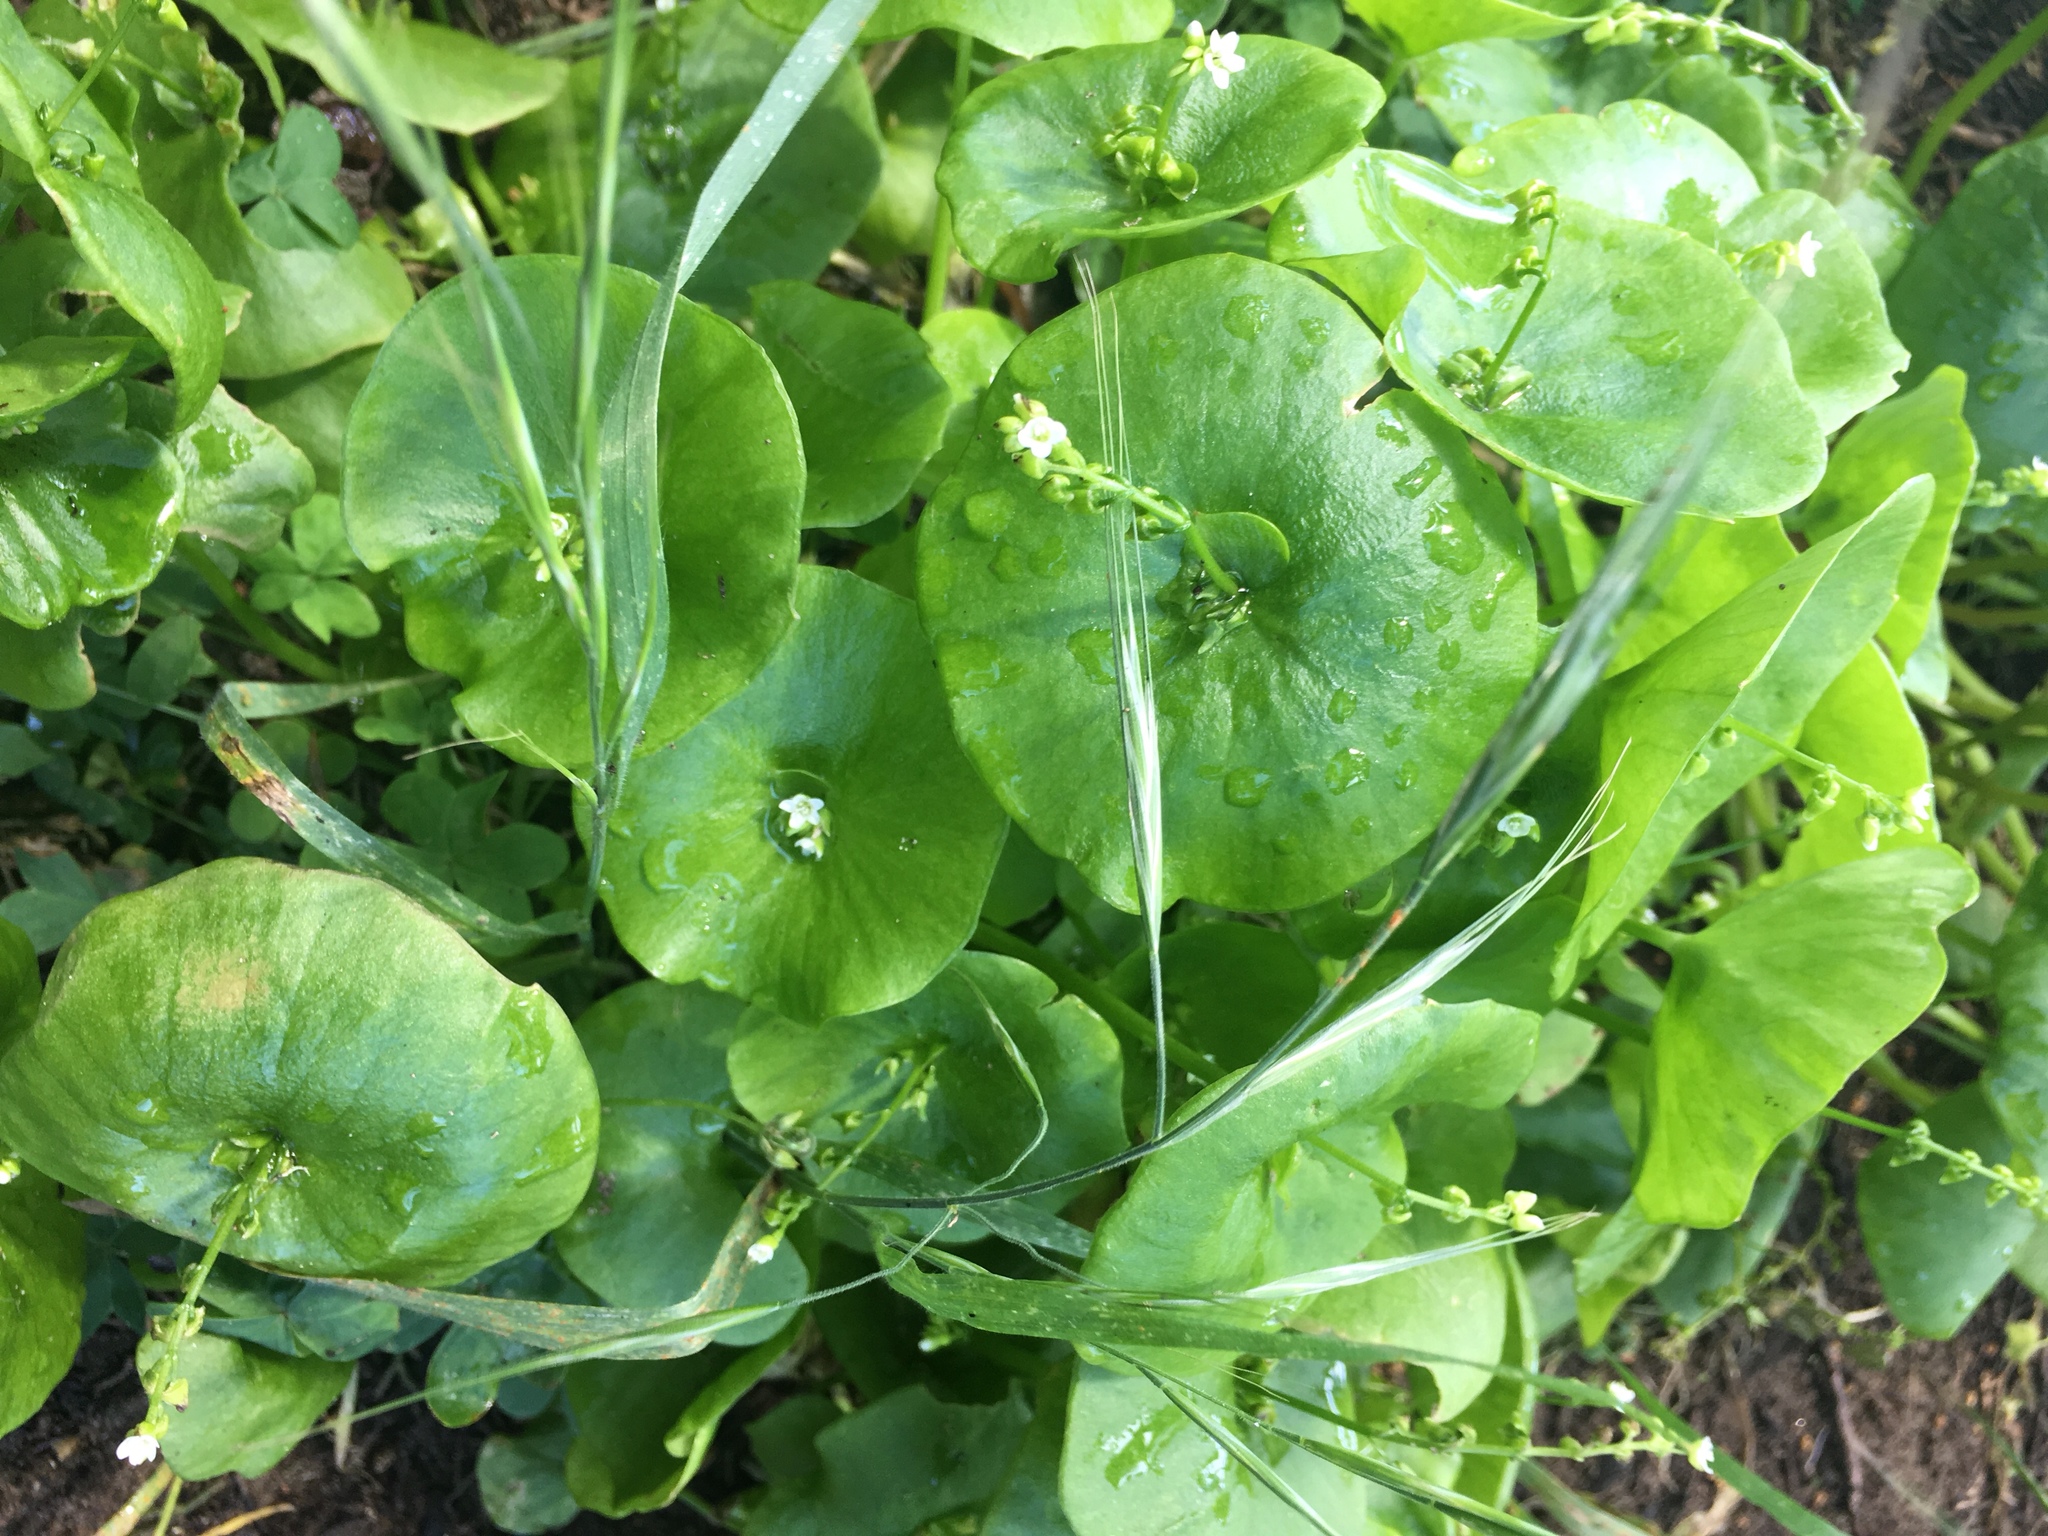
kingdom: Plantae
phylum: Tracheophyta
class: Magnoliopsida
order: Caryophyllales
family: Montiaceae
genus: Claytonia
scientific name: Claytonia perfoliata
